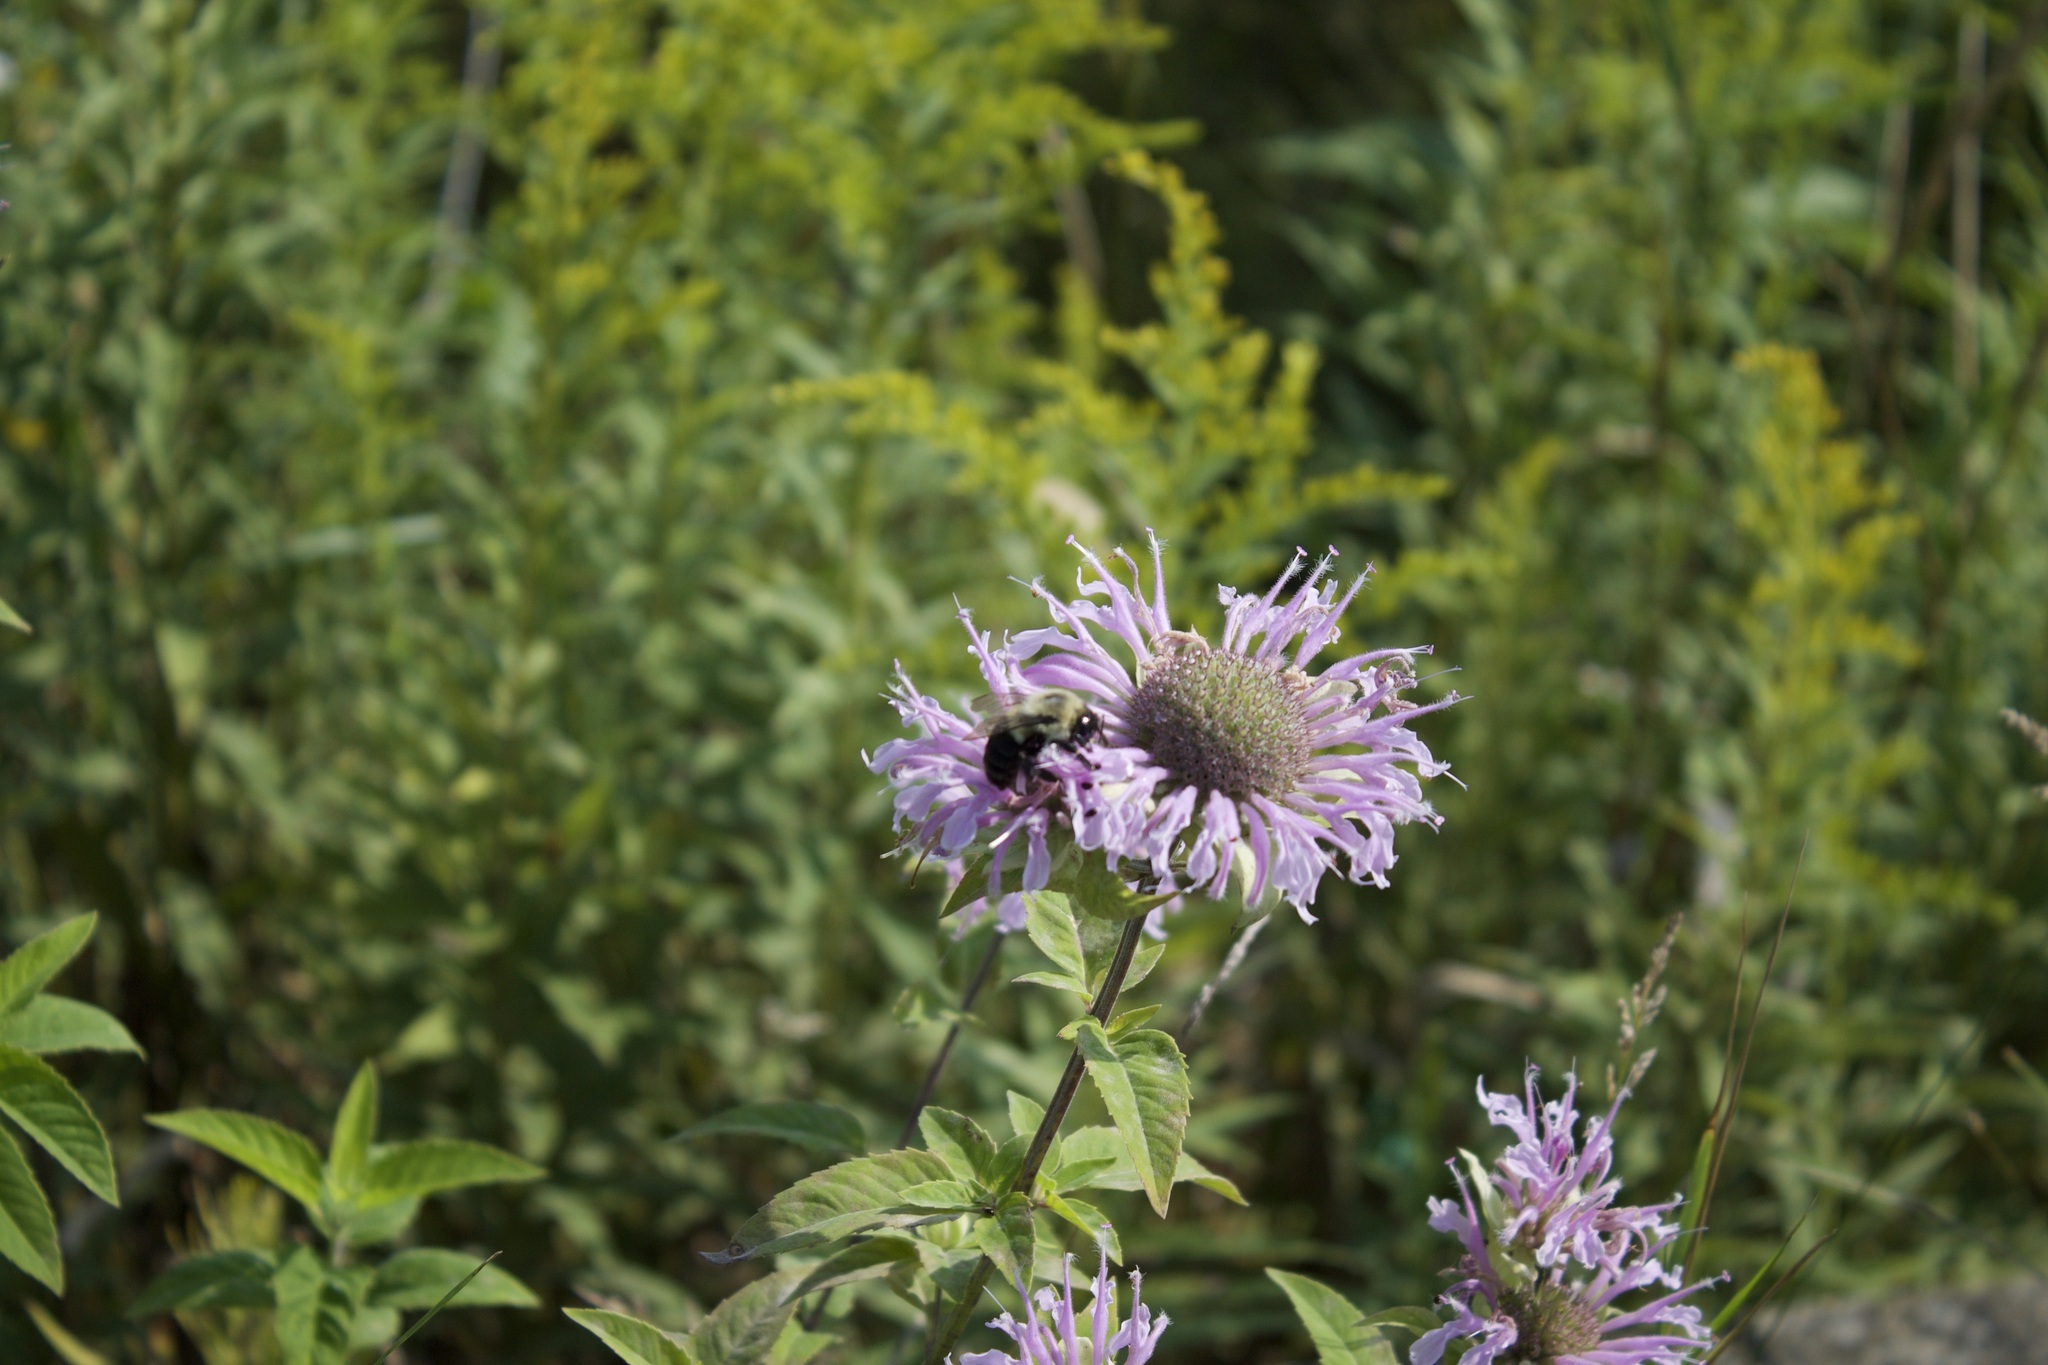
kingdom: Animalia
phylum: Arthropoda
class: Insecta
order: Hymenoptera
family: Apidae
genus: Bombus
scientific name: Bombus impatiens
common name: Common eastern bumble bee
